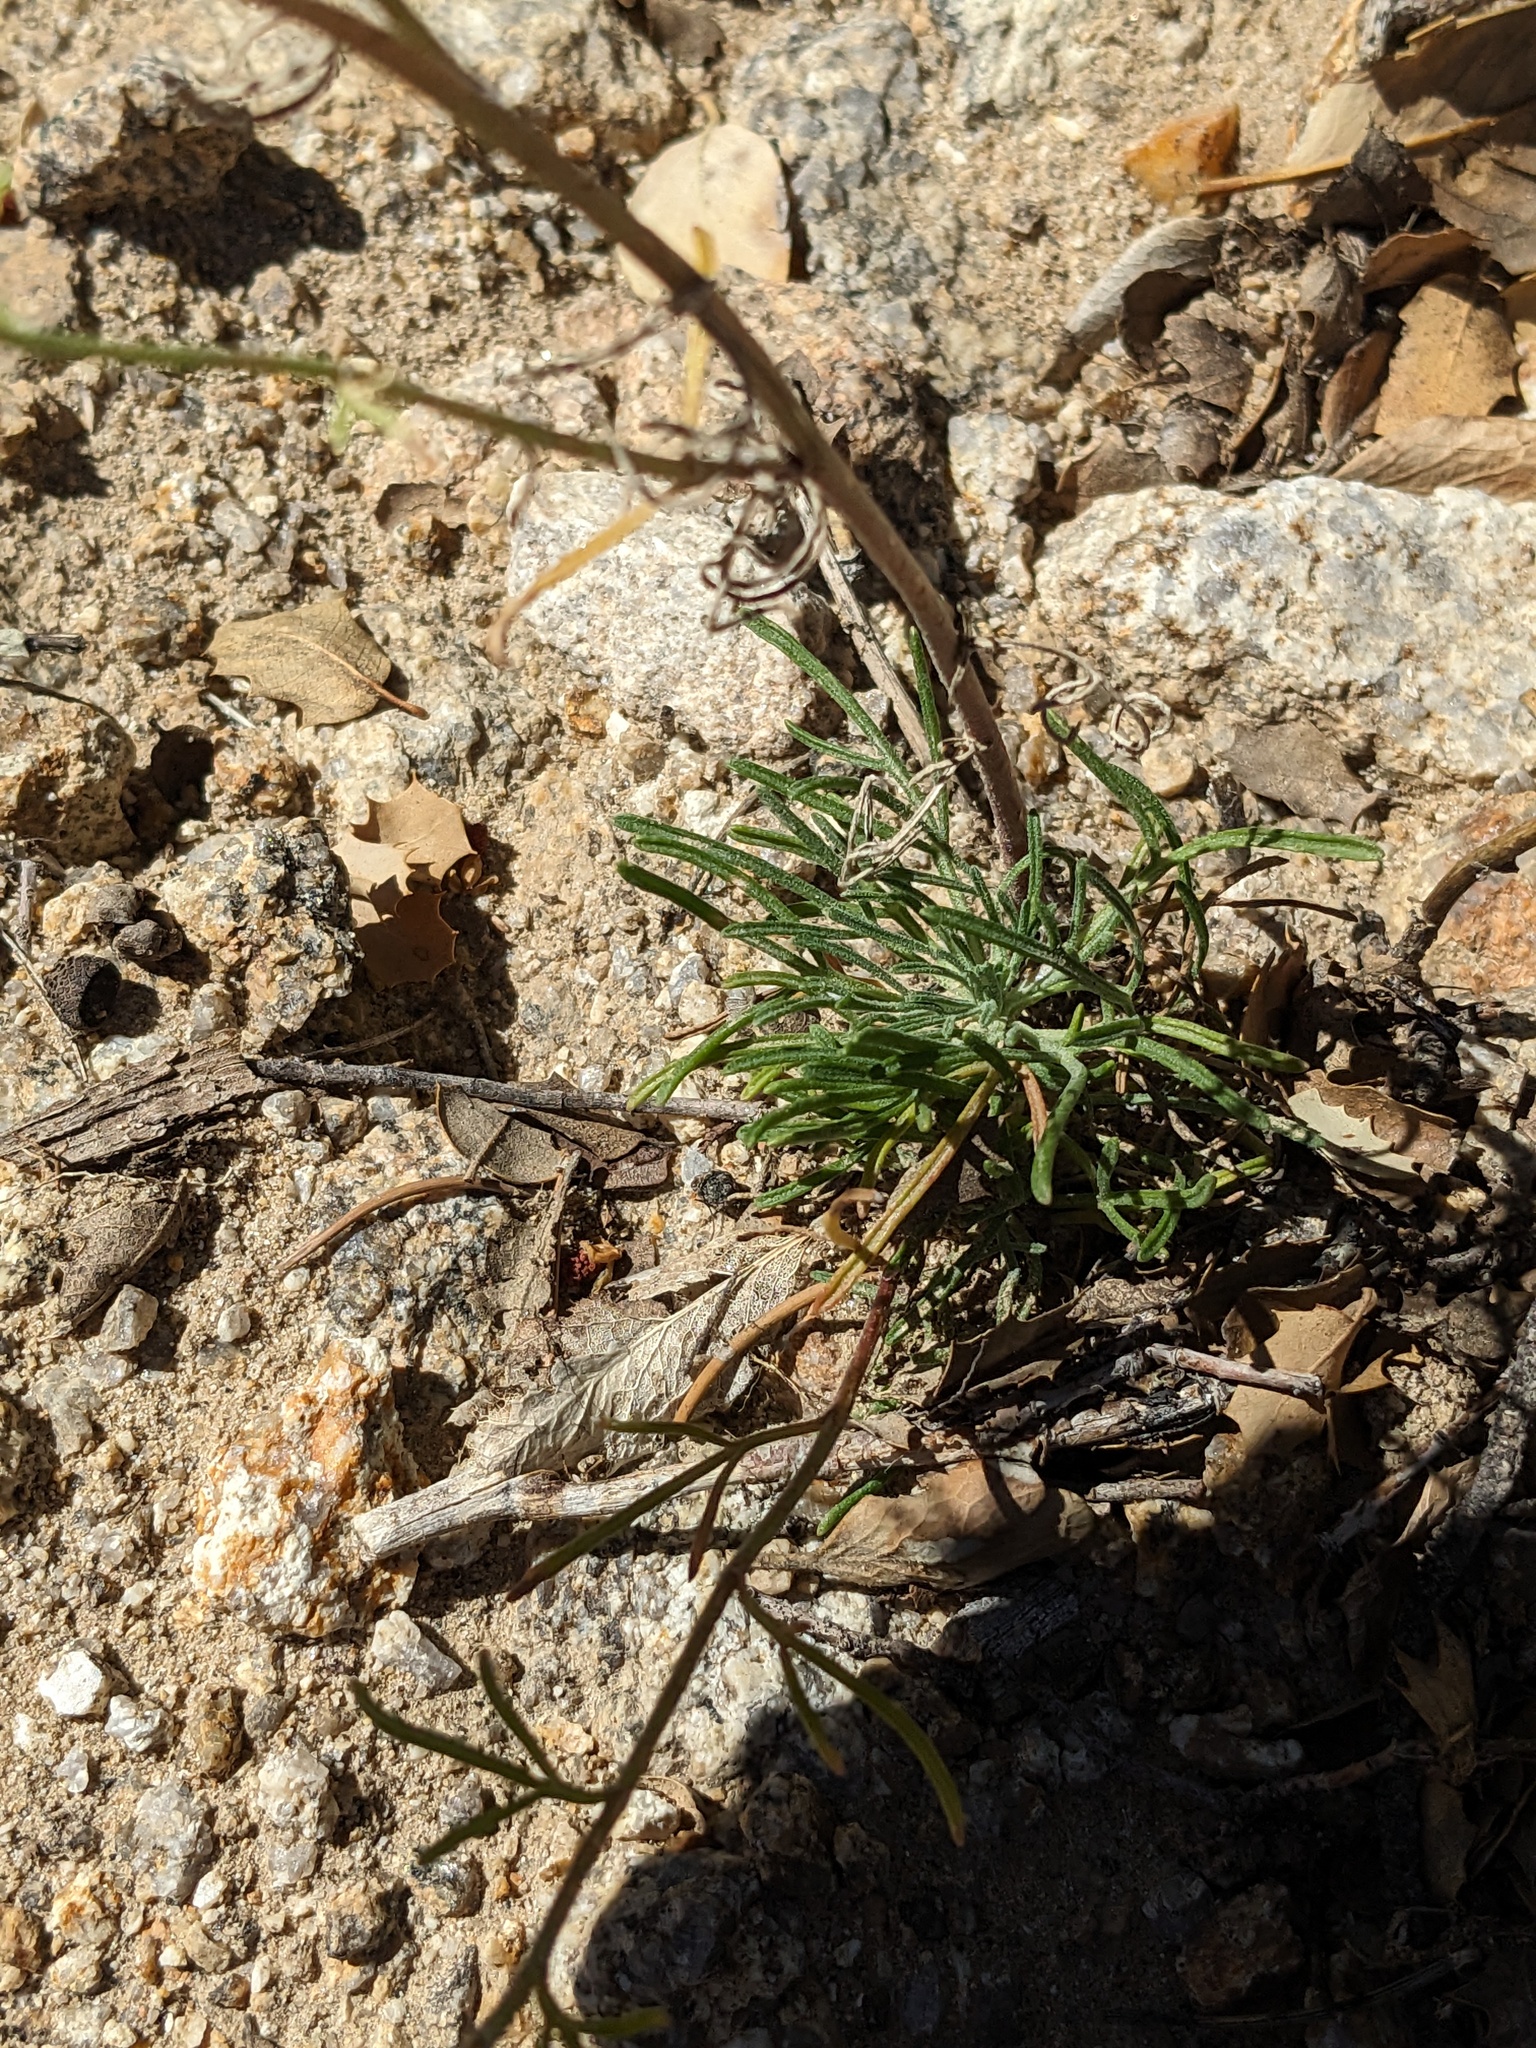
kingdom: Plantae
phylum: Tracheophyta
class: Magnoliopsida
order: Asterales
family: Asteraceae
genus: Hymenoxys
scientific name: Hymenoxys cooperi
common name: Cooper's bitterweed
